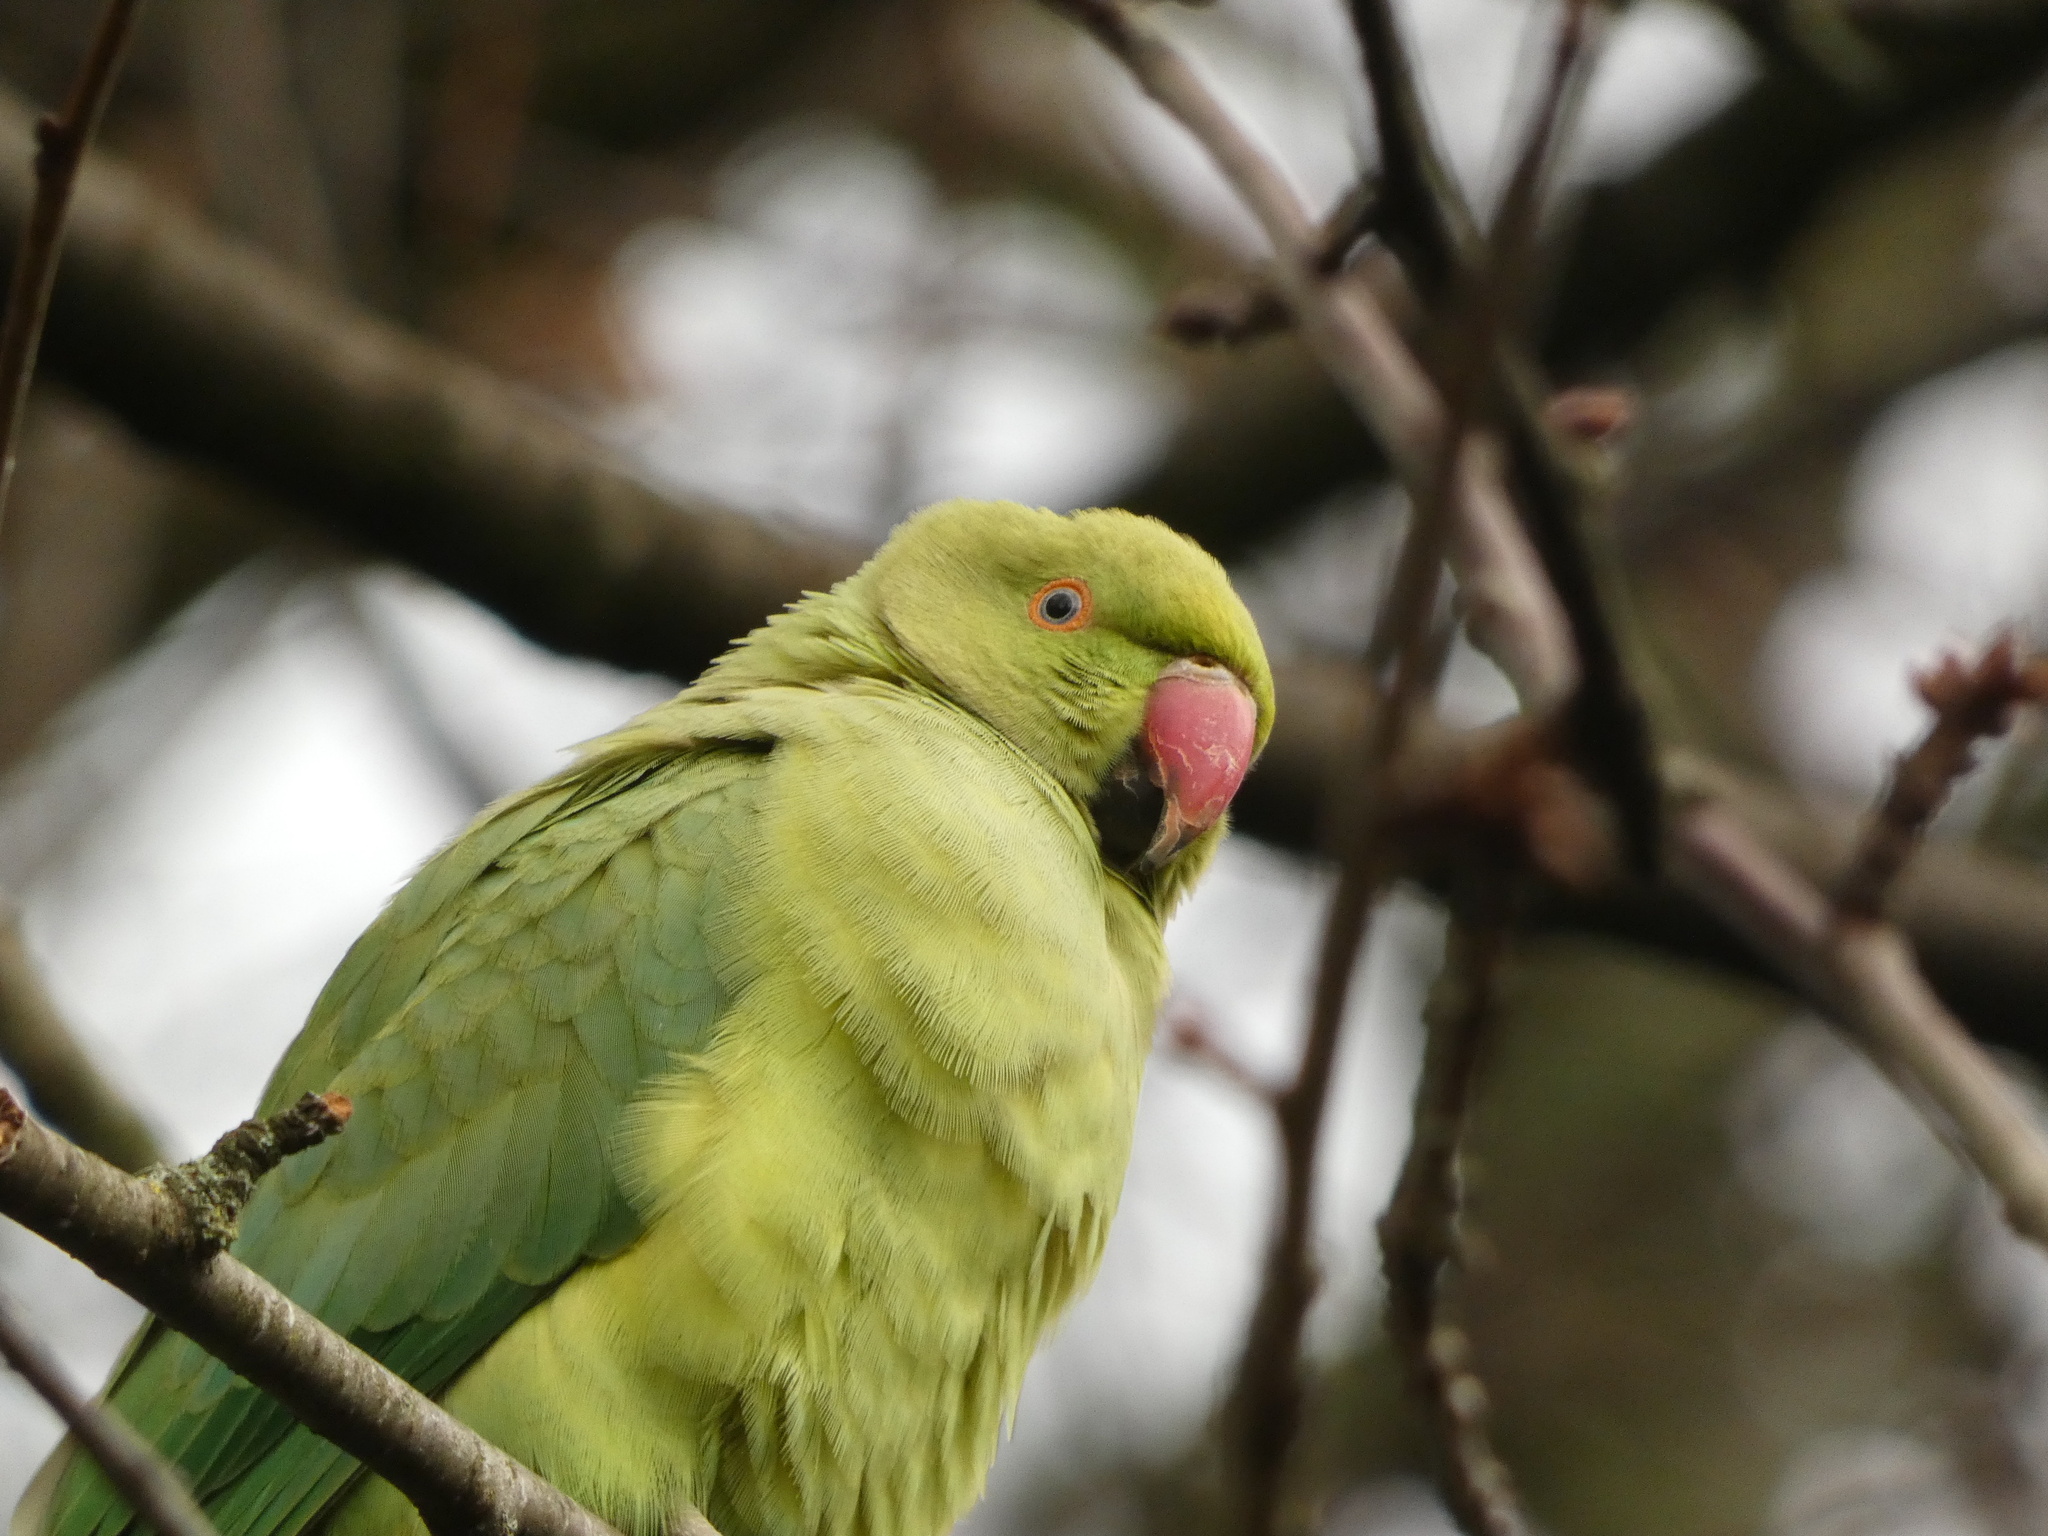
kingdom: Animalia
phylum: Chordata
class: Aves
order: Psittaciformes
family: Psittacidae
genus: Psittacula
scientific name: Psittacula krameri
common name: Rose-ringed parakeet
